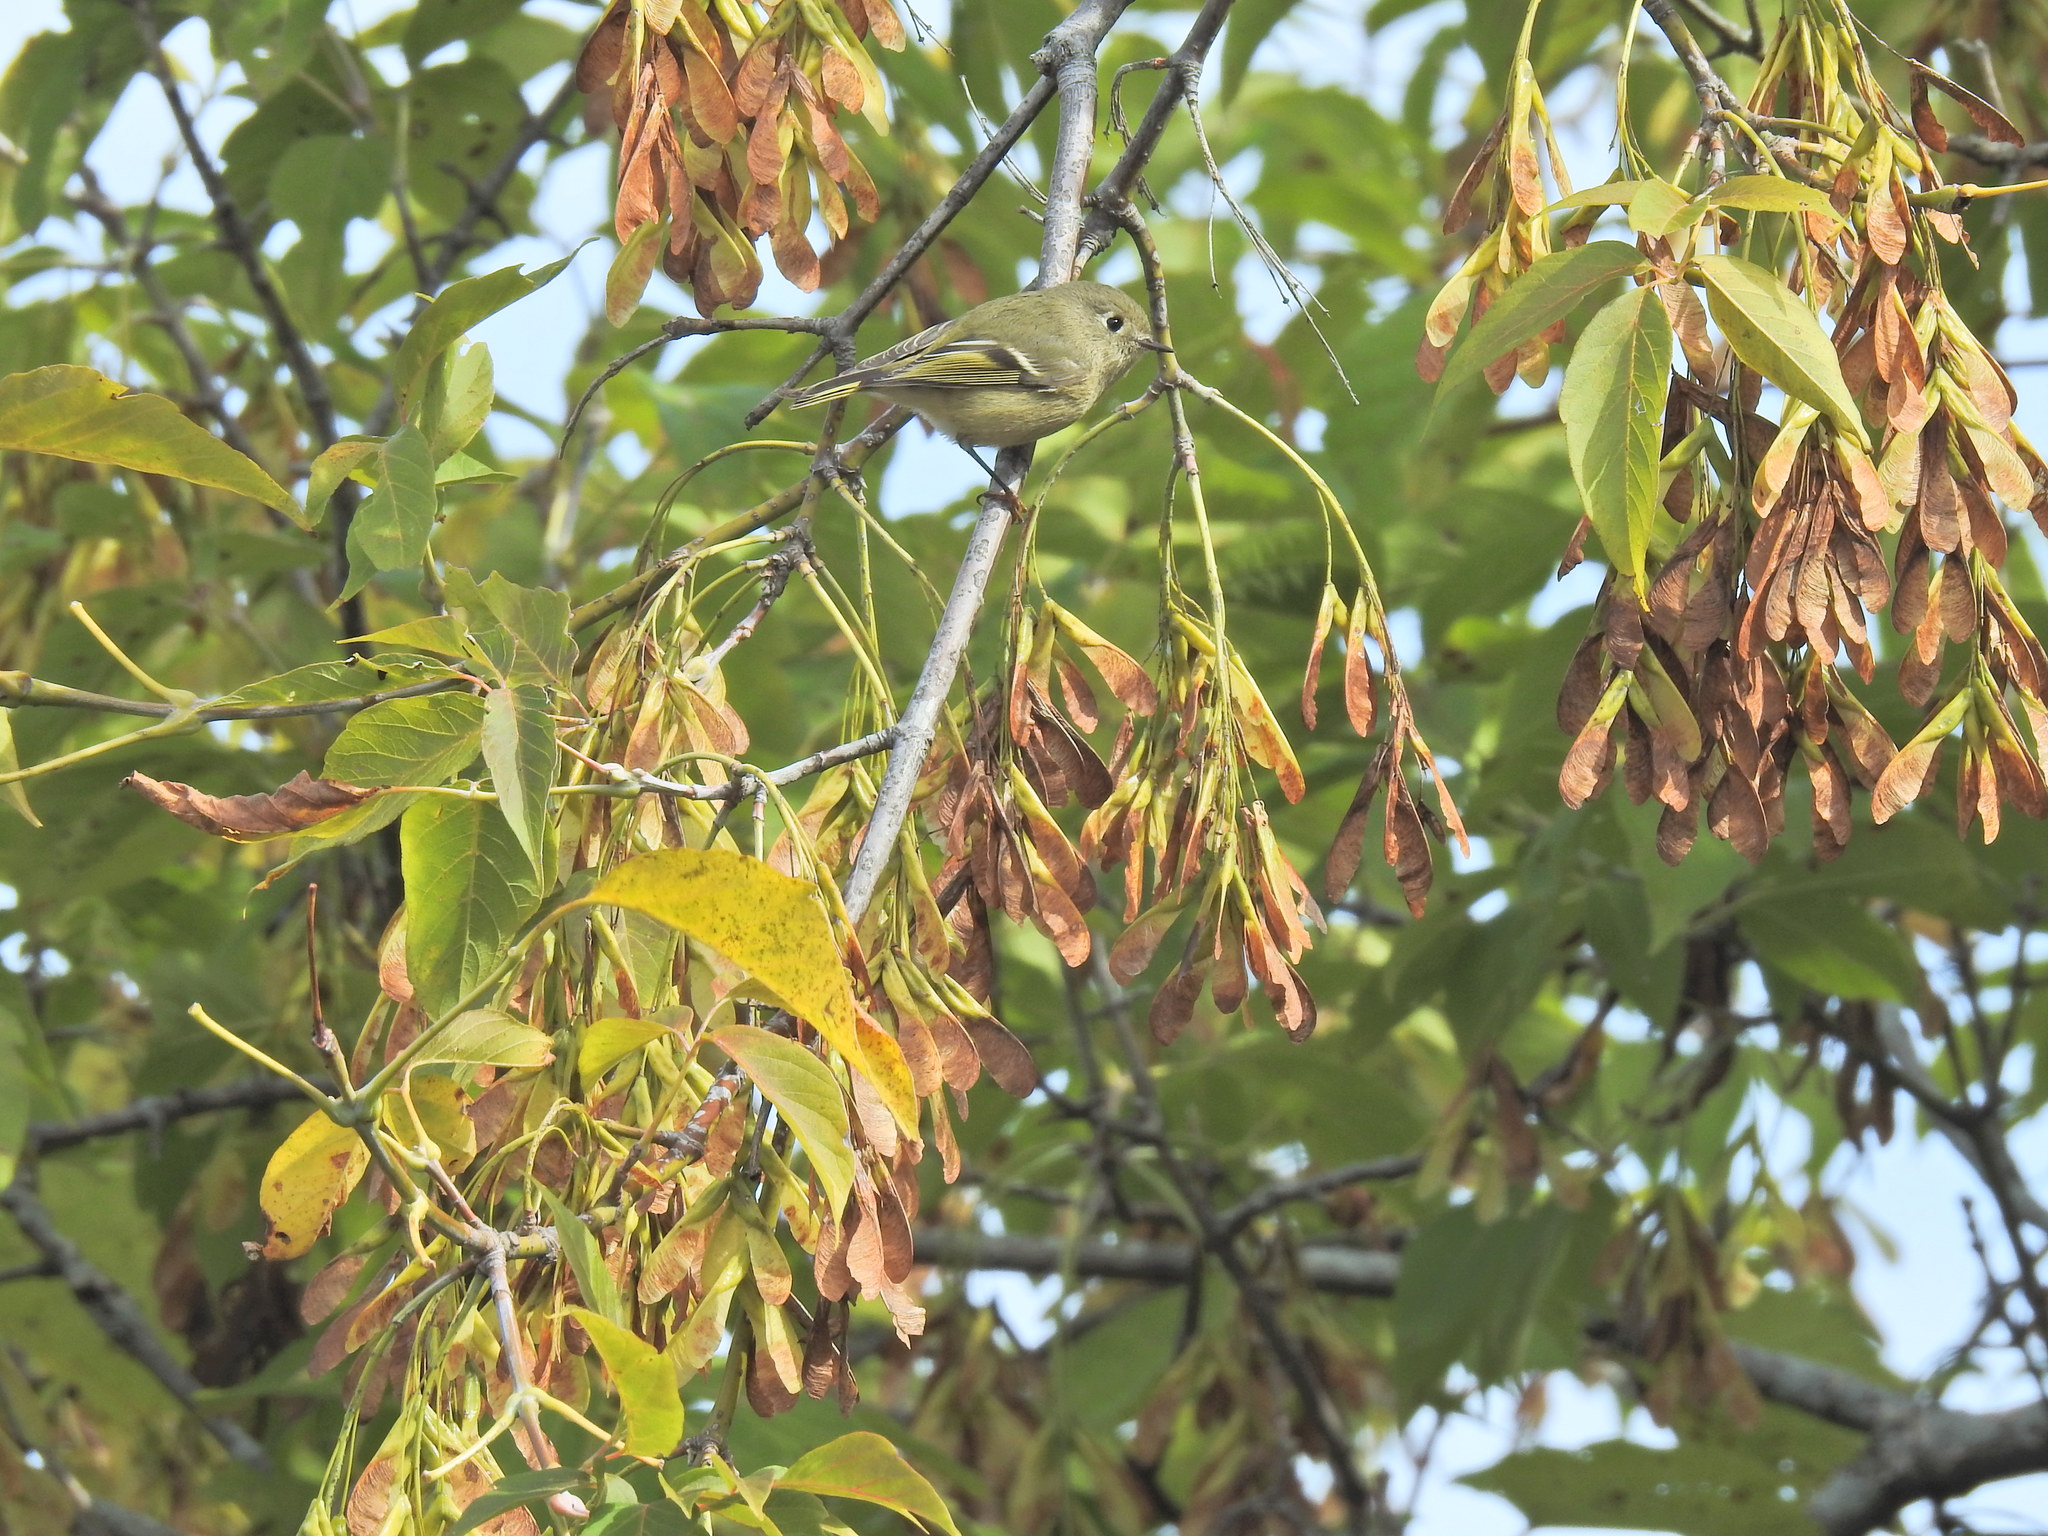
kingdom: Animalia
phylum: Chordata
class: Aves
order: Passeriformes
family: Regulidae
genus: Regulus
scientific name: Regulus calendula
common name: Ruby-crowned kinglet
